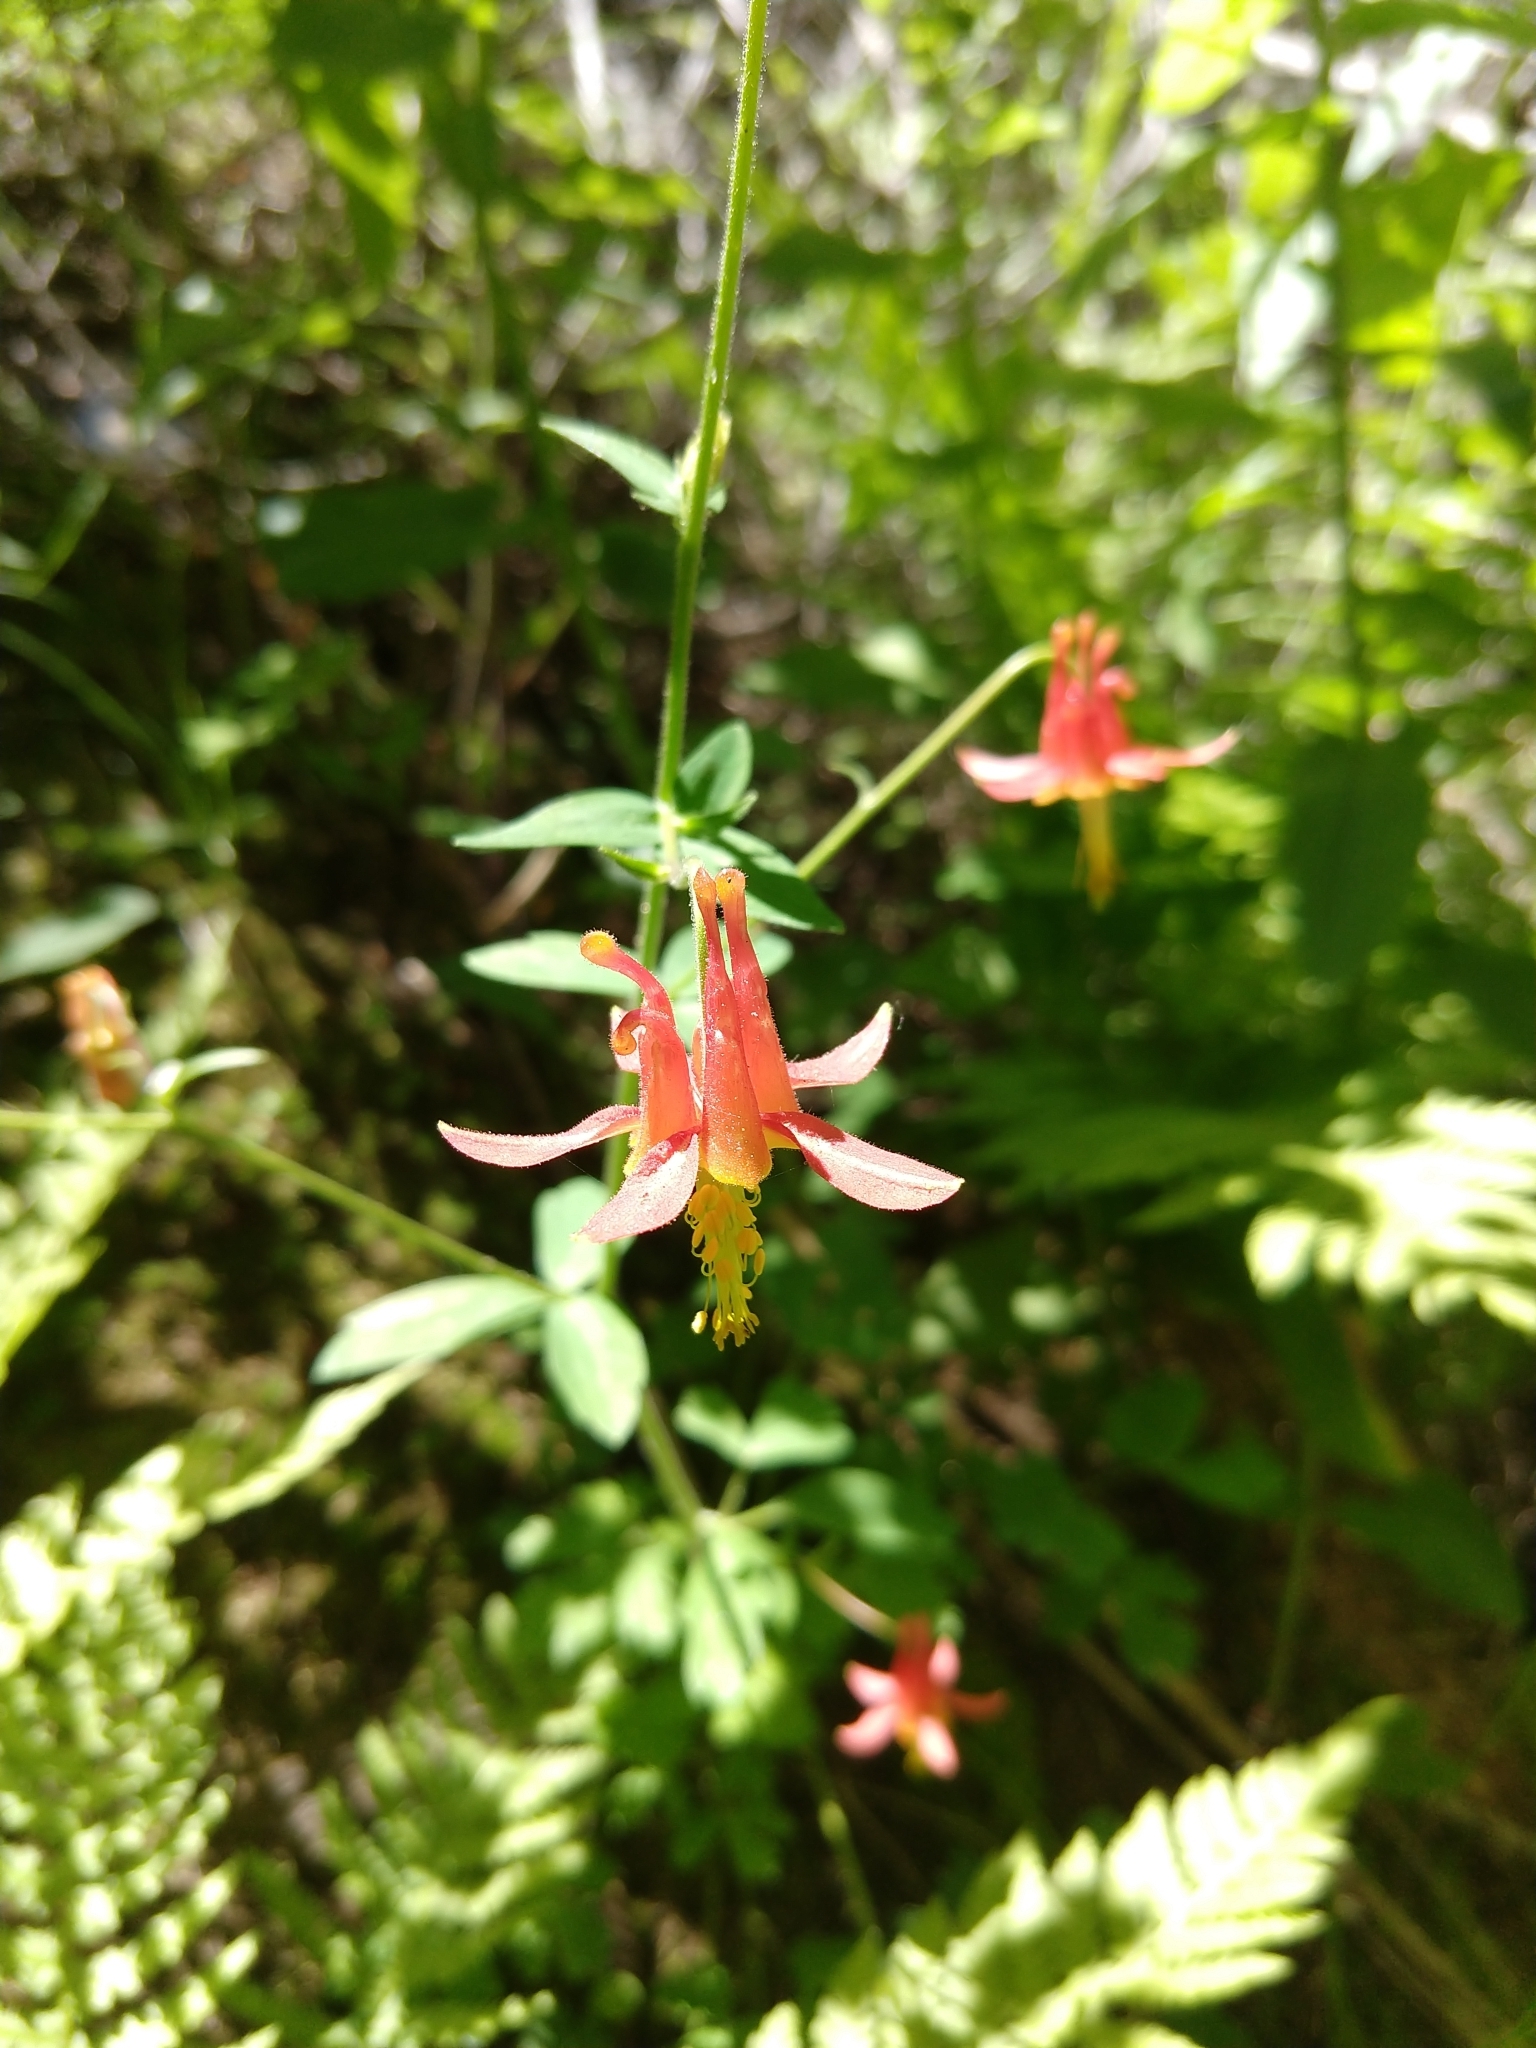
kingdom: Plantae
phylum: Tracheophyta
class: Magnoliopsida
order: Ranunculales
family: Ranunculaceae
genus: Aquilegia
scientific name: Aquilegia formosa
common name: Sitka columbine
